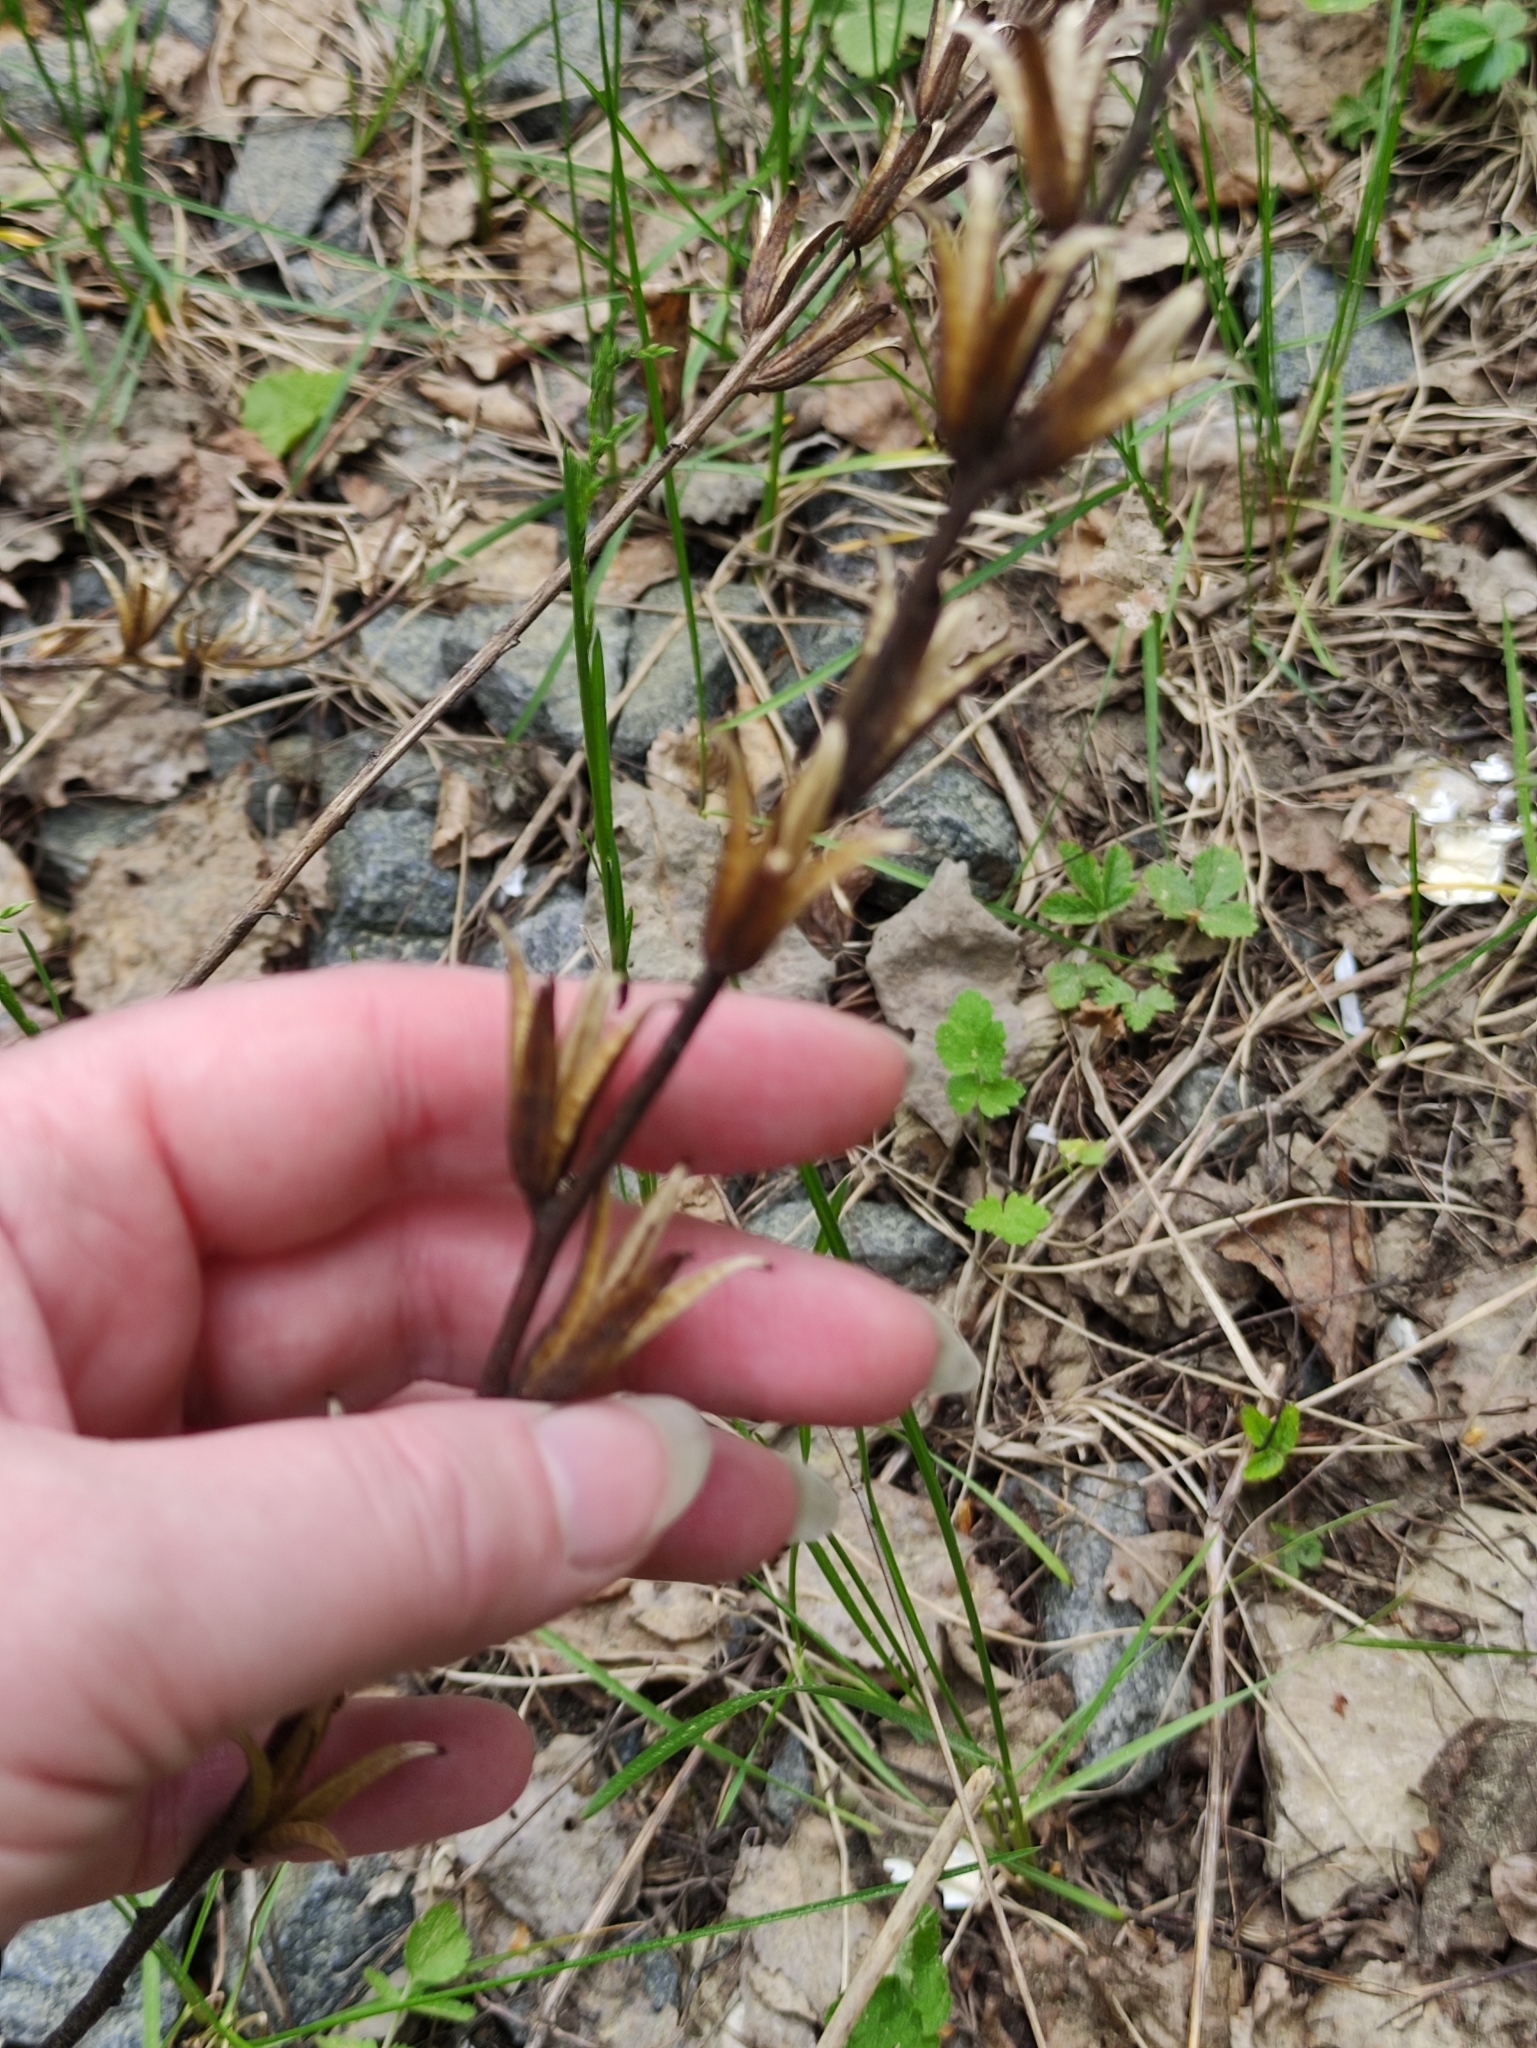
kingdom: Plantae
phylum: Tracheophyta
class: Magnoliopsida
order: Myrtales
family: Onagraceae
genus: Oenothera
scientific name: Oenothera
